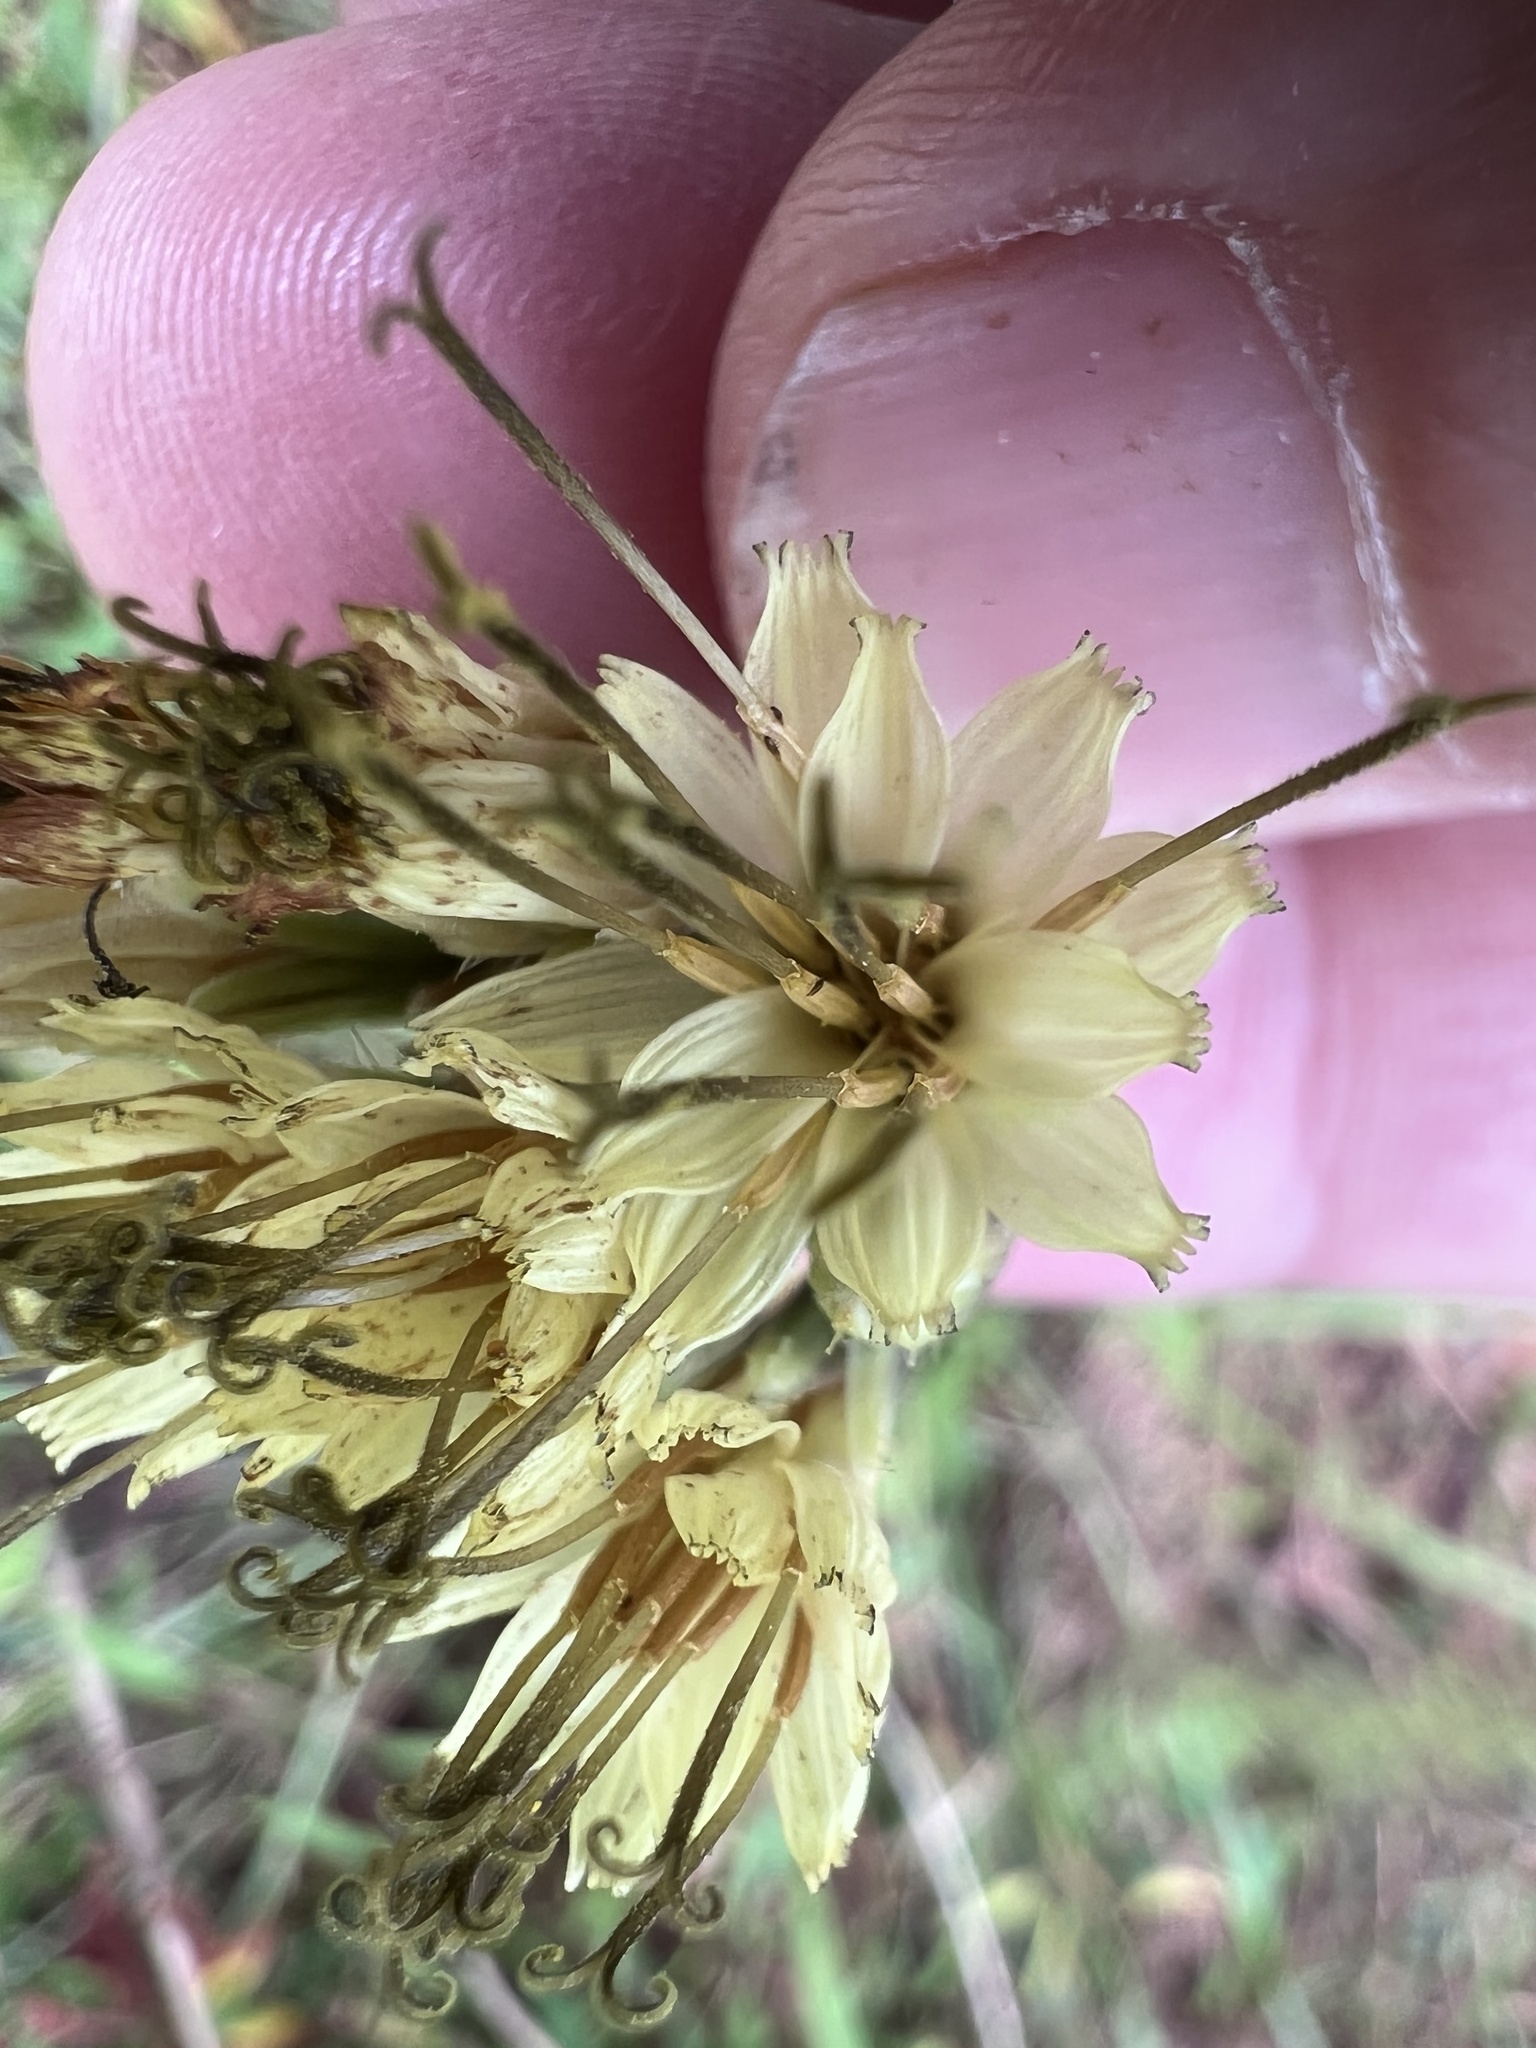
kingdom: Plantae
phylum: Tracheophyta
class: Magnoliopsida
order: Asterales
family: Asteraceae
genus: Nabalus
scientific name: Nabalus serpentarius
